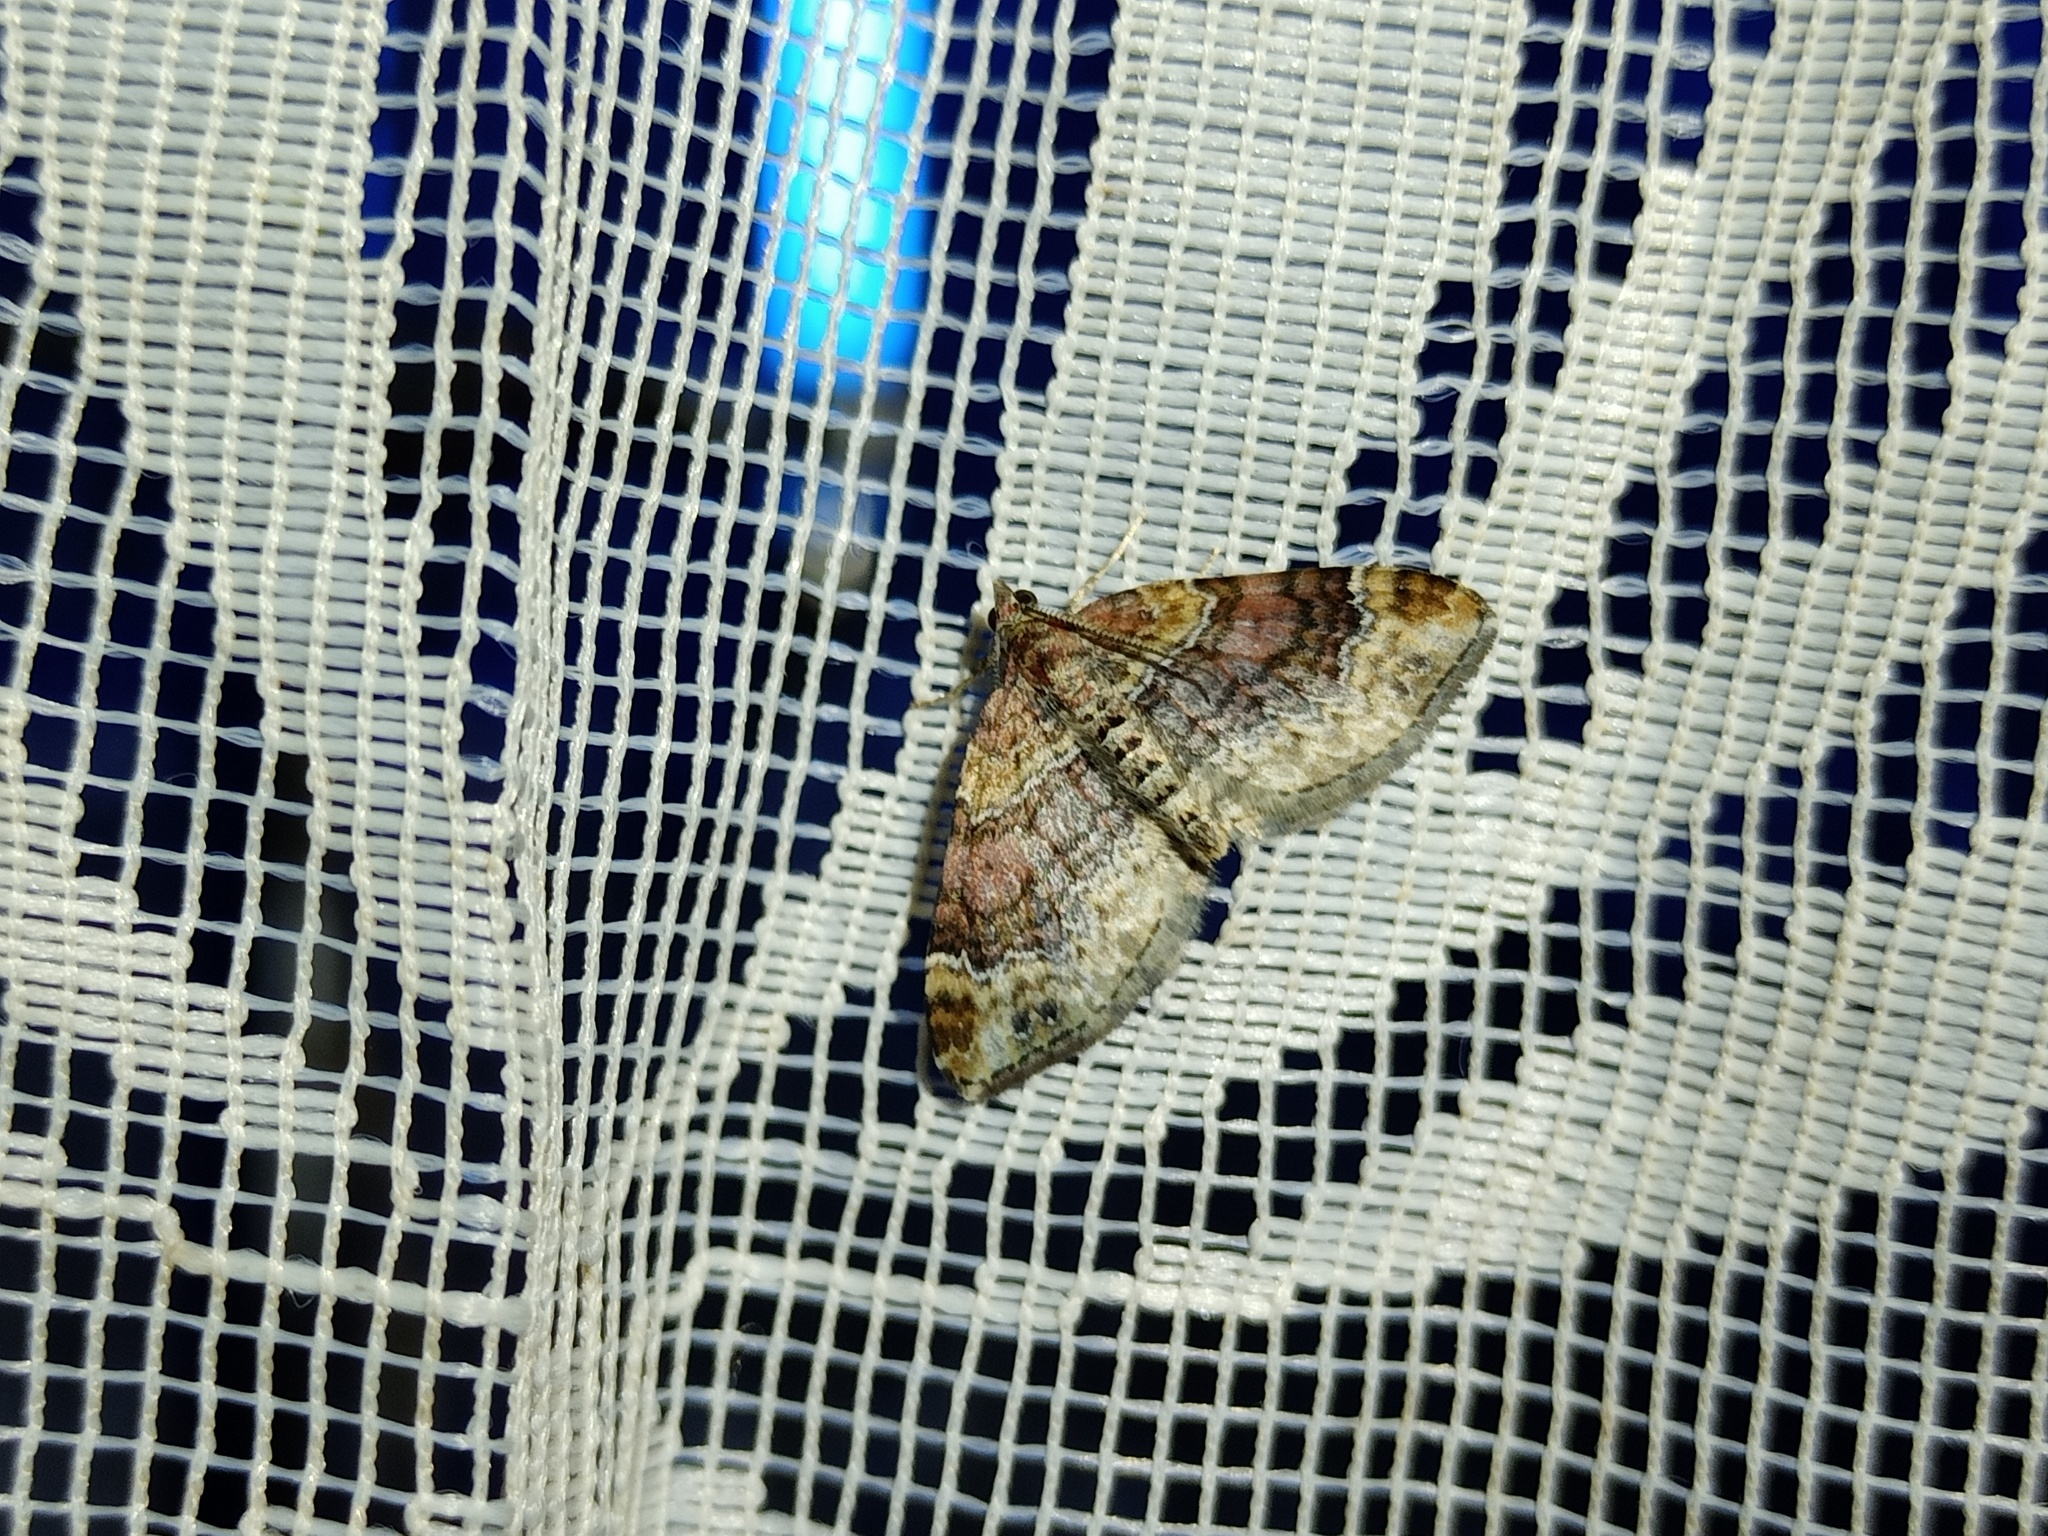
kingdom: Animalia
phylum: Arthropoda
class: Insecta
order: Lepidoptera
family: Geometridae
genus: Xanthorhoe
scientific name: Xanthorhoe spadicearia
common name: Red twin-spot carpet
